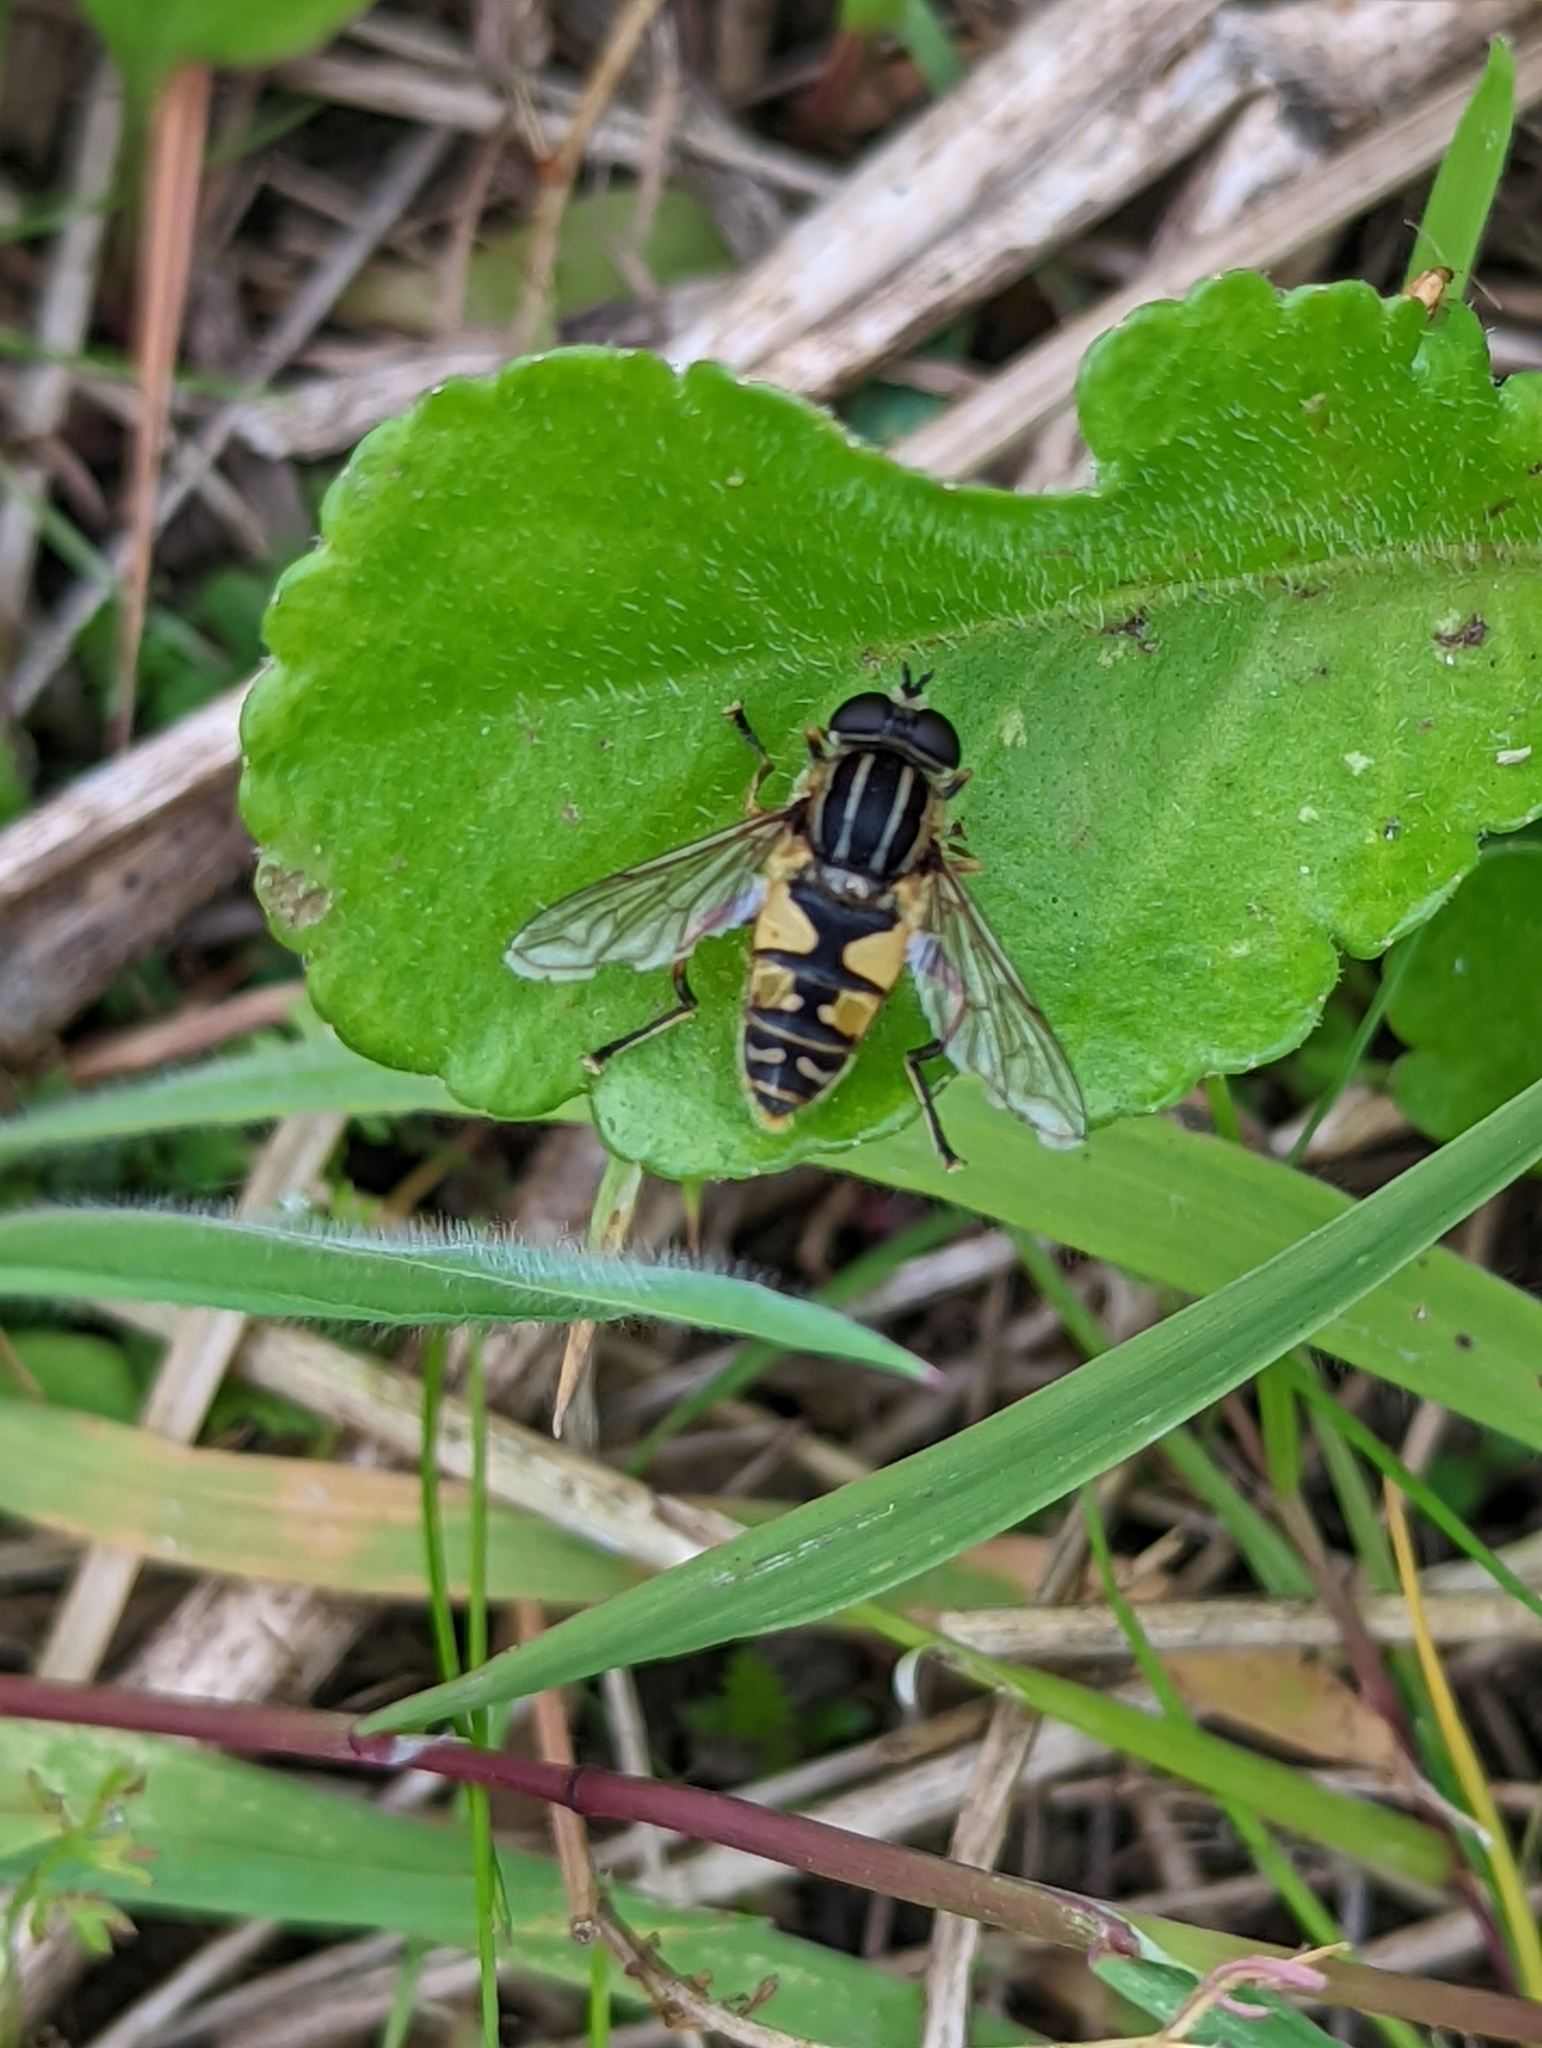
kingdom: Animalia
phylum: Arthropoda
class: Insecta
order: Diptera
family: Syrphidae
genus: Helophilus
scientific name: Helophilus pendulus
